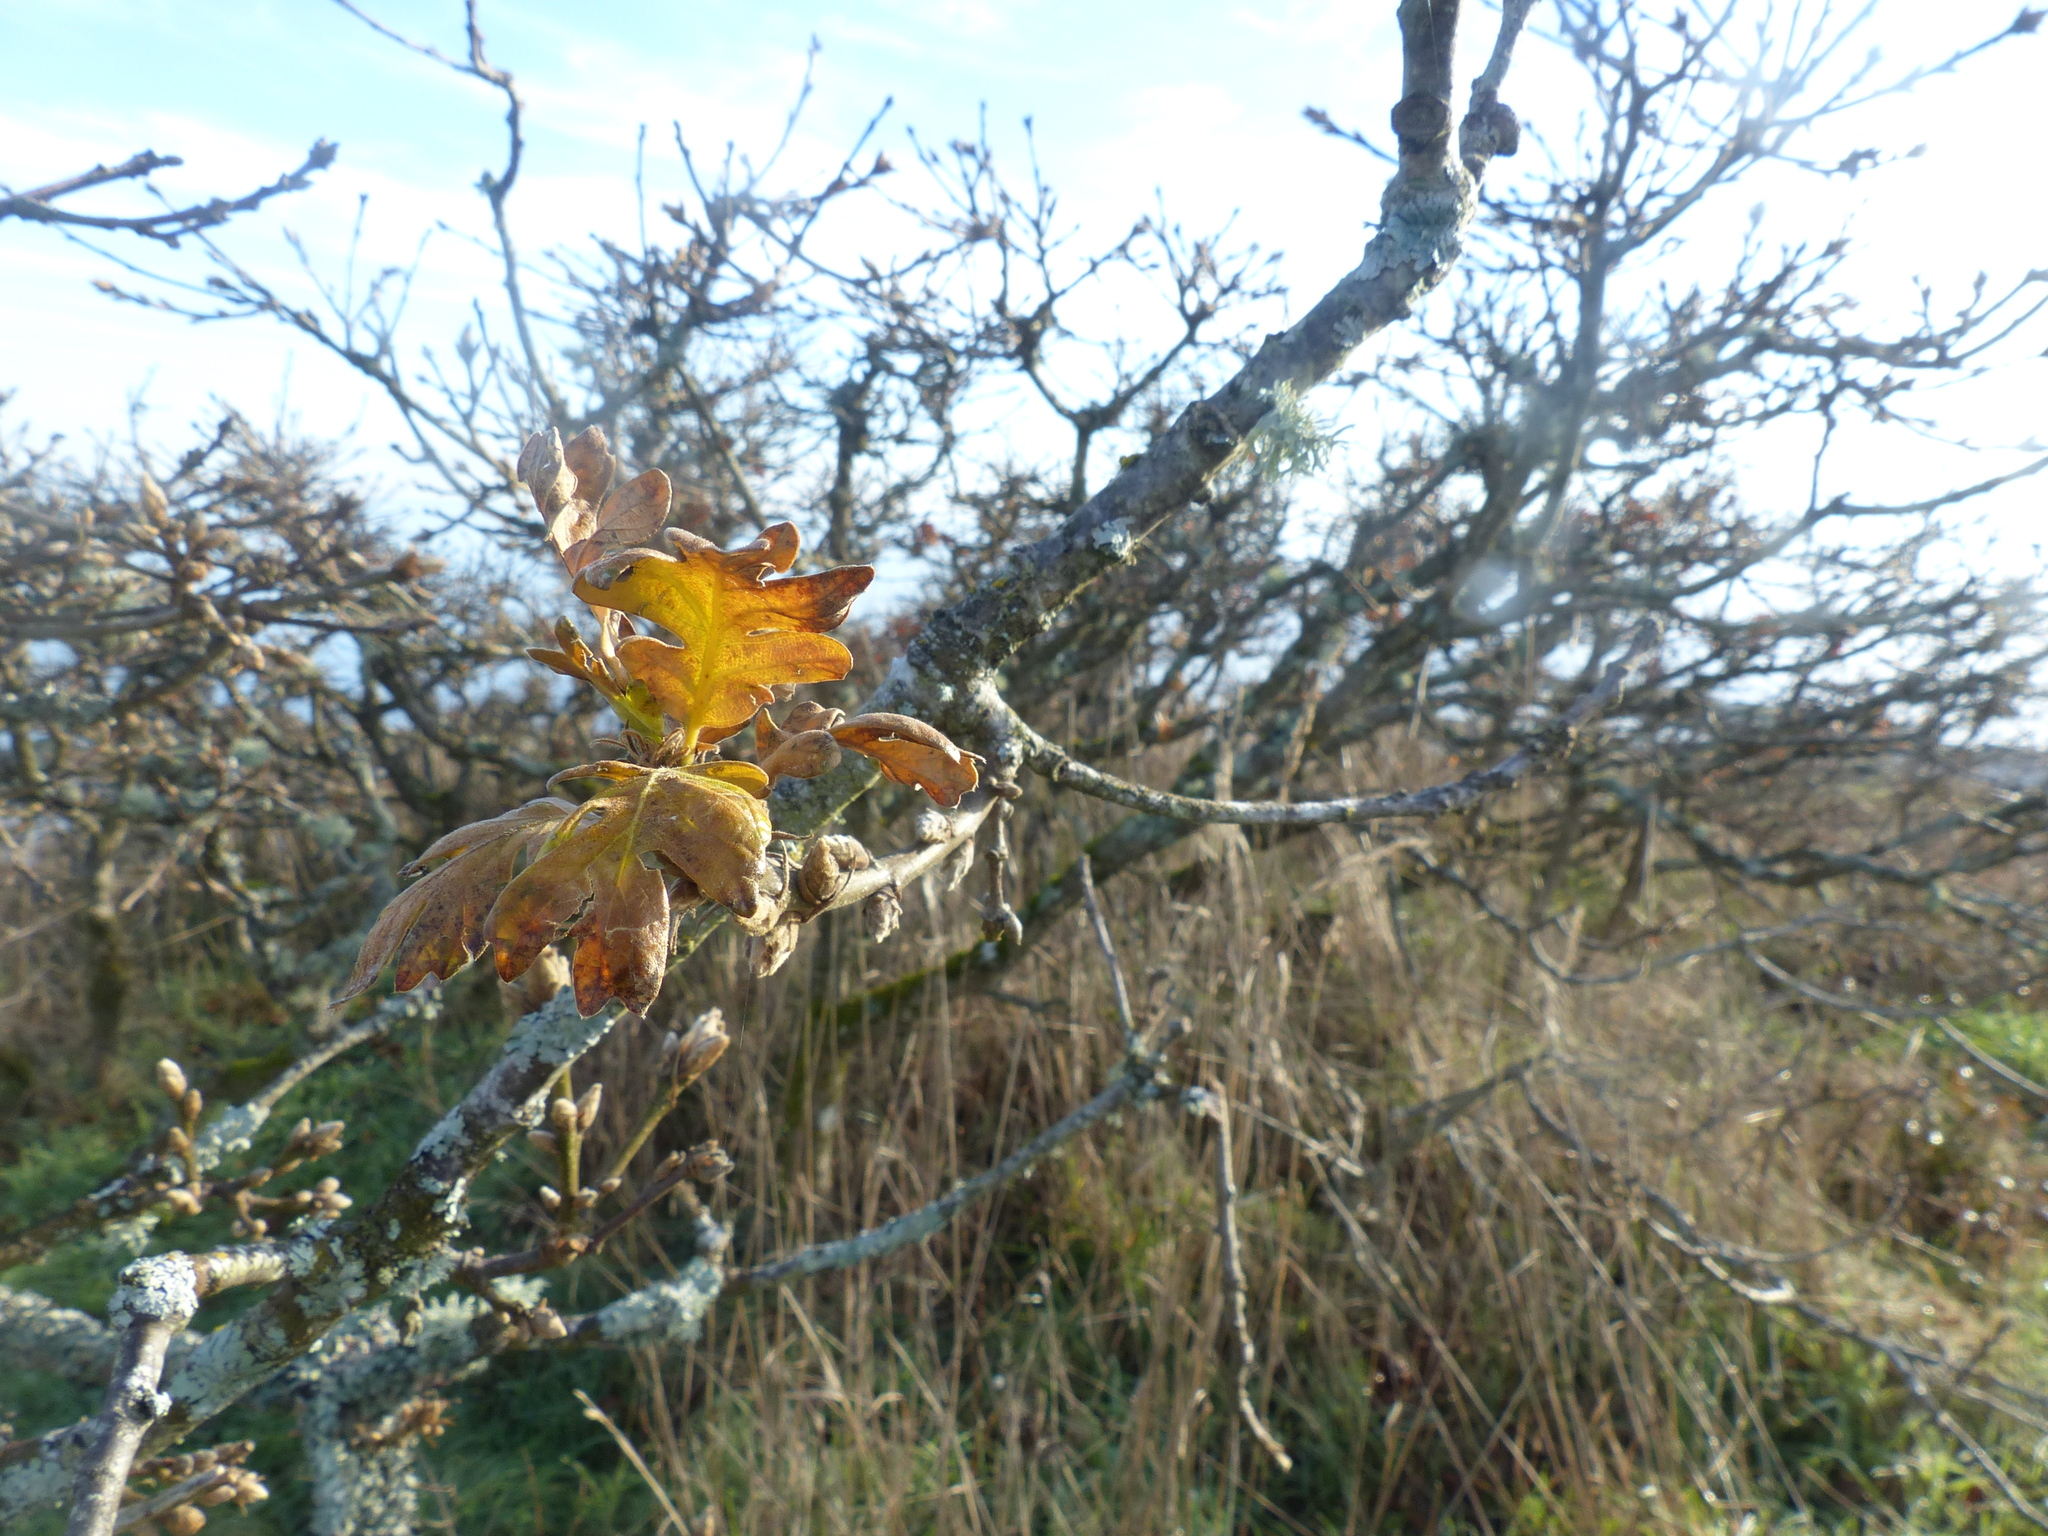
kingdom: Plantae
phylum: Tracheophyta
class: Magnoliopsida
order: Fagales
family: Fagaceae
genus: Quercus
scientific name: Quercus garryana
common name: Garry oak
